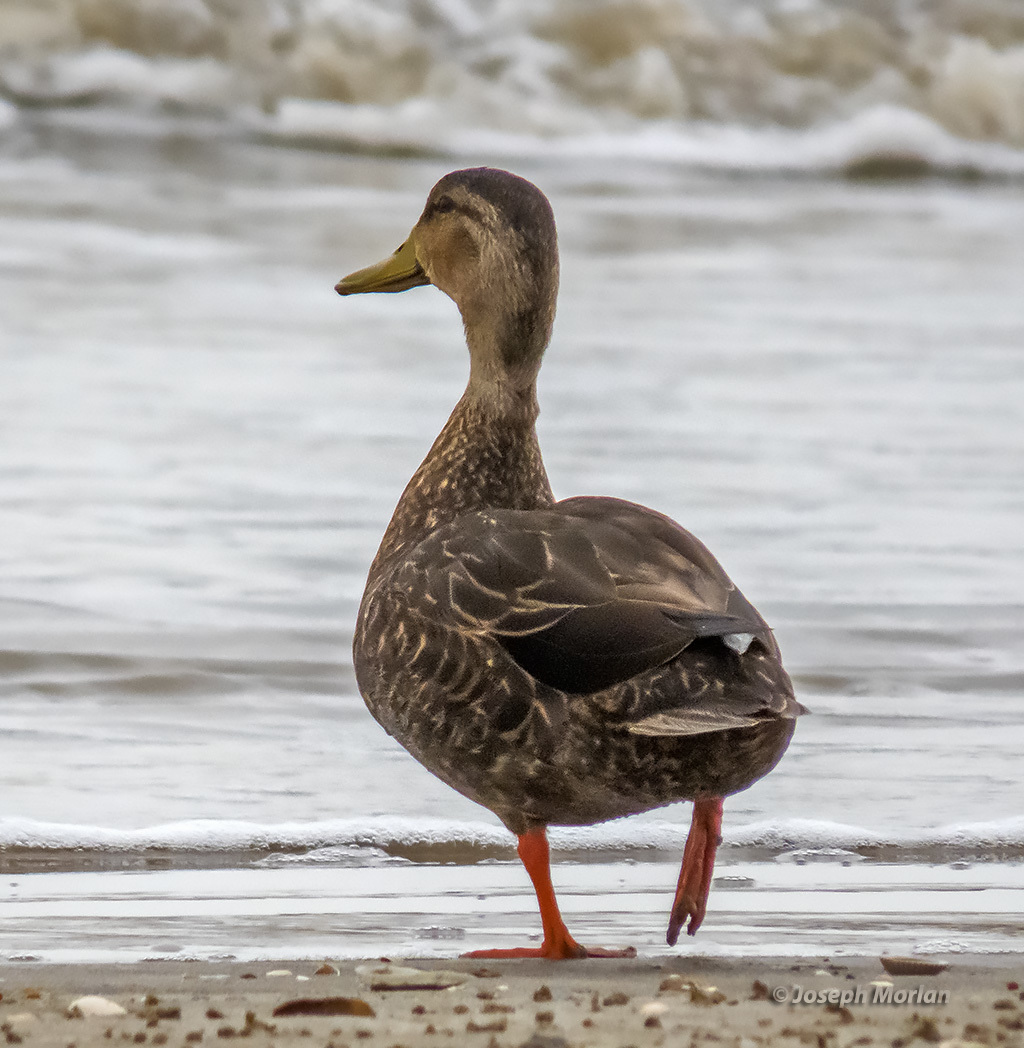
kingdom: Animalia
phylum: Chordata
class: Aves
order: Anseriformes
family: Anatidae
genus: Anas
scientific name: Anas fulvigula
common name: Mottled duck
